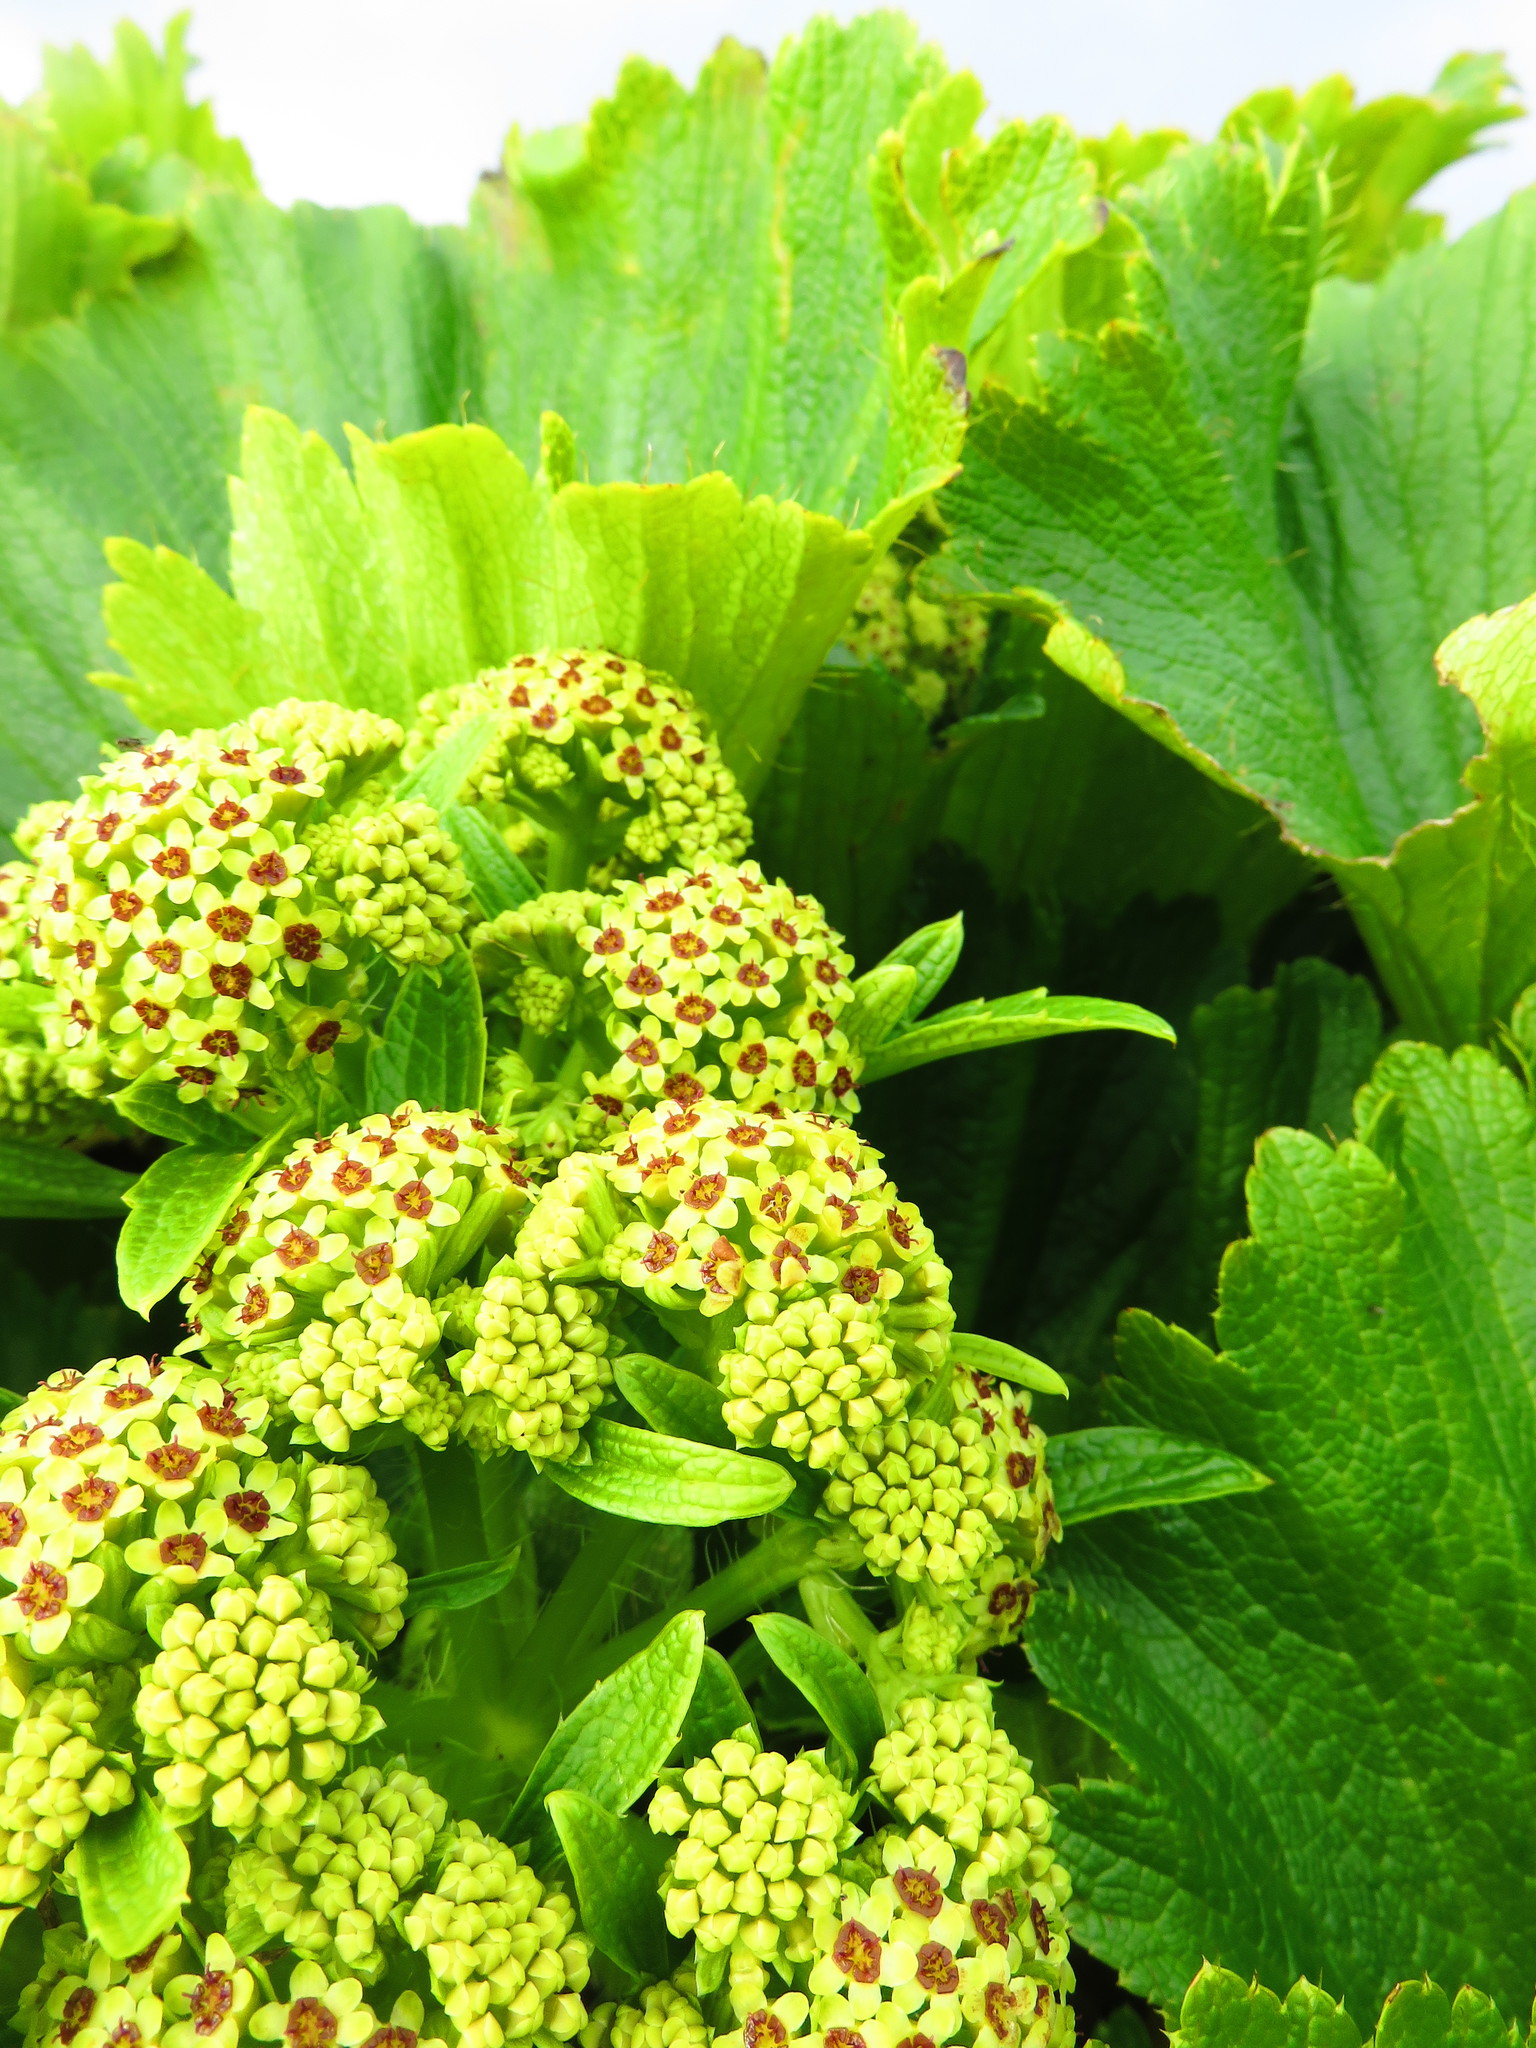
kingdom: Plantae
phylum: Tracheophyta
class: Magnoliopsida
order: Apiales
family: Apiaceae
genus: Azorella
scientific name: Azorella polaris
